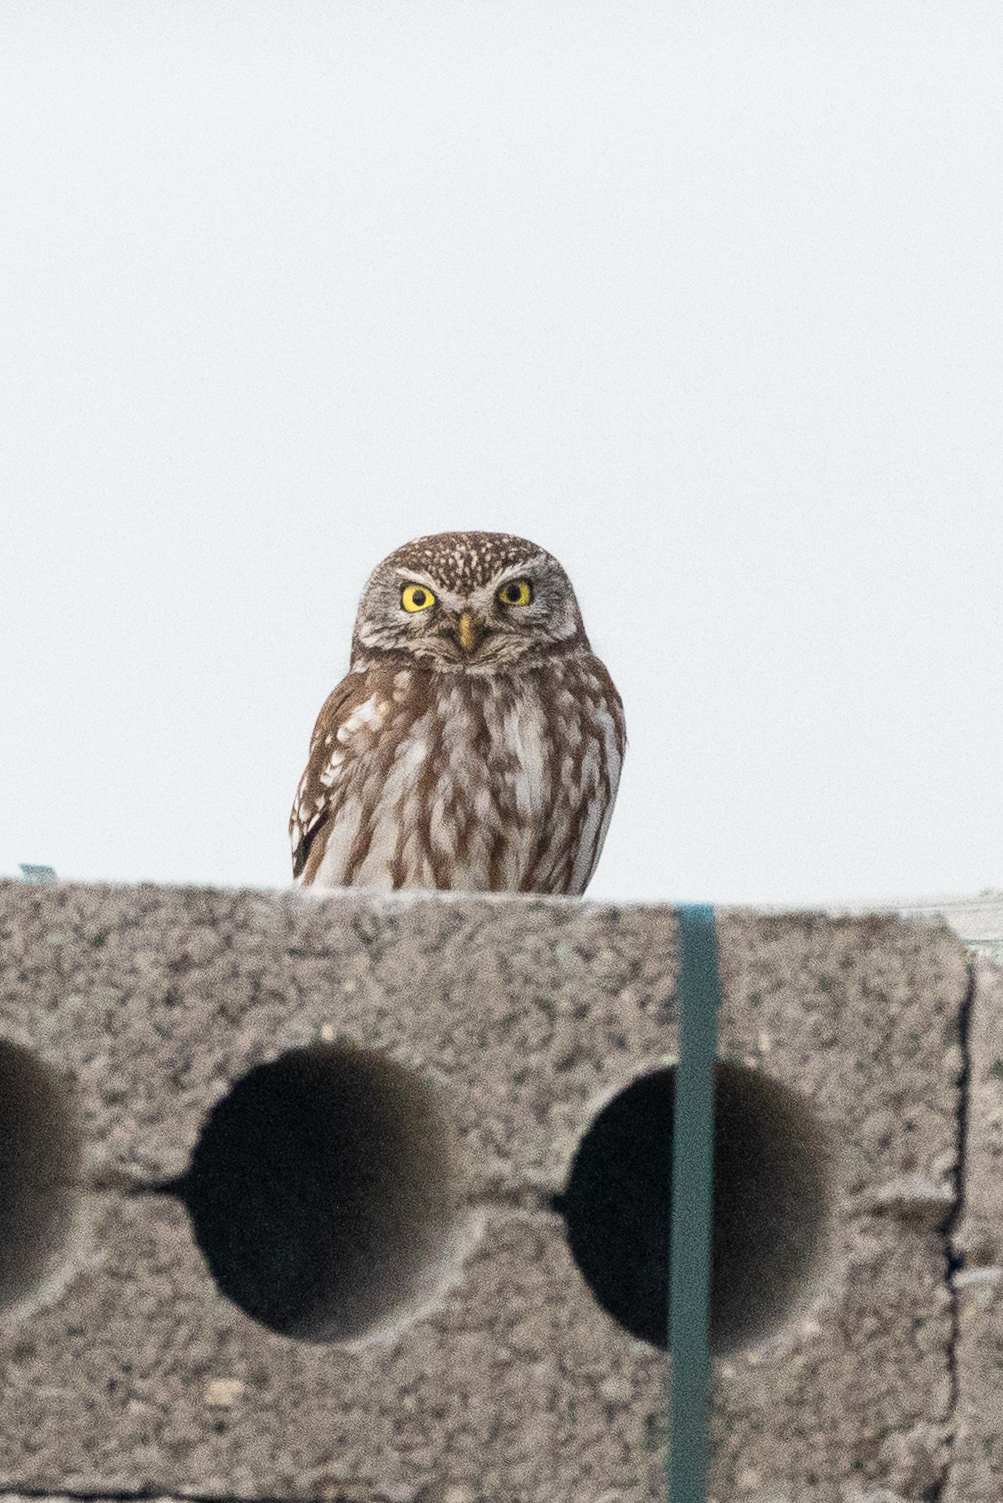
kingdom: Animalia
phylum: Chordata
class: Aves
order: Strigiformes
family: Strigidae
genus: Athene
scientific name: Athene noctua
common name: Little owl
